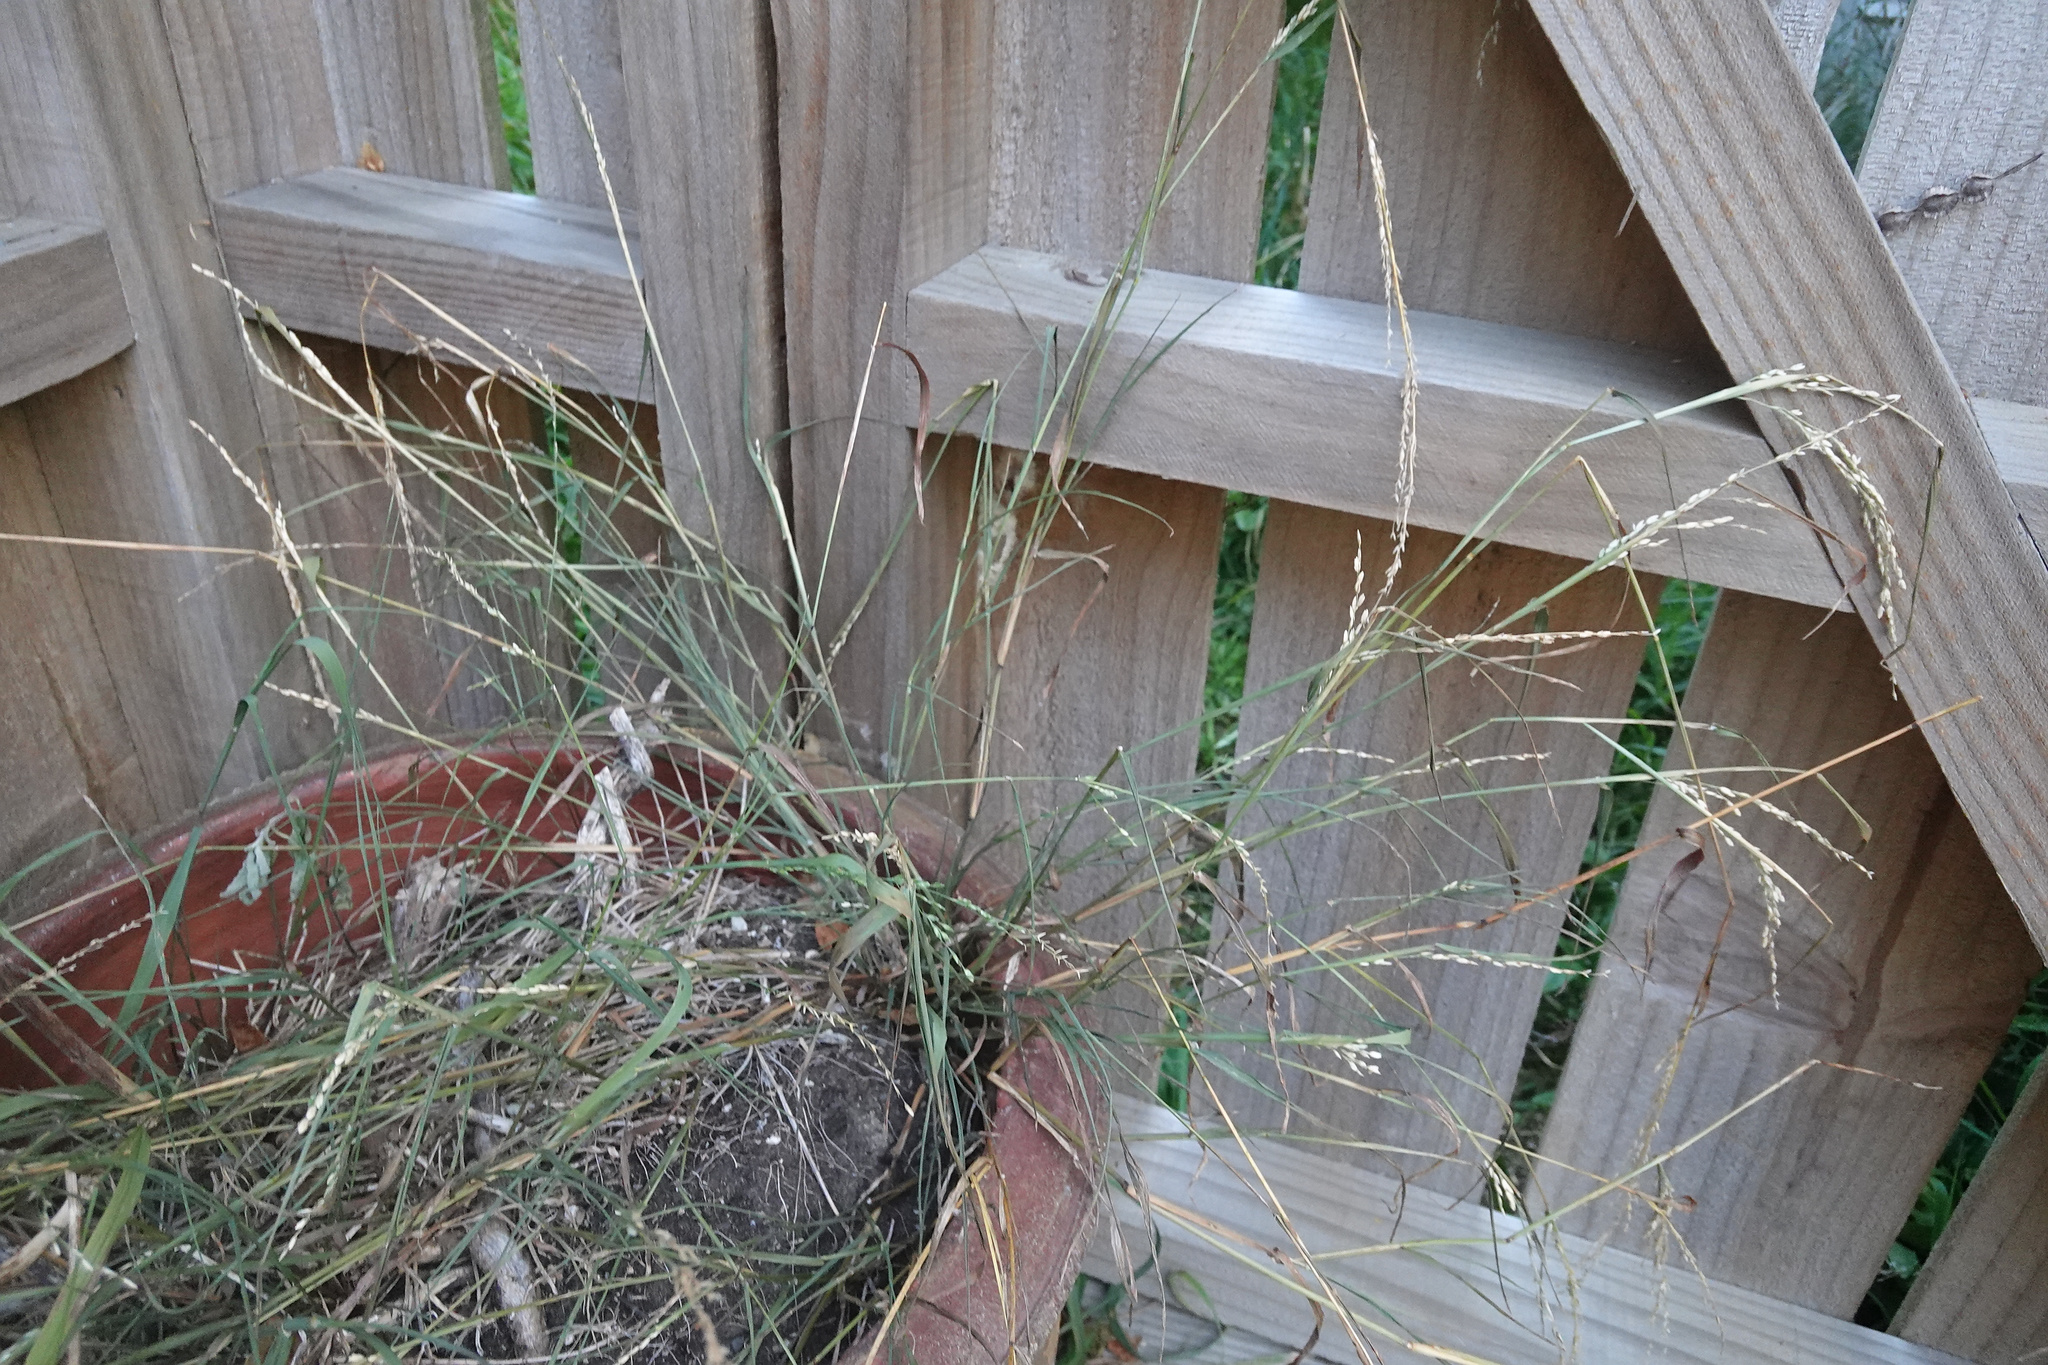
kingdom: Plantae
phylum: Tracheophyta
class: Liliopsida
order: Poales
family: Poaceae
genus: Ehrharta
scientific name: Ehrharta erecta
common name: Panic veldtgrass
